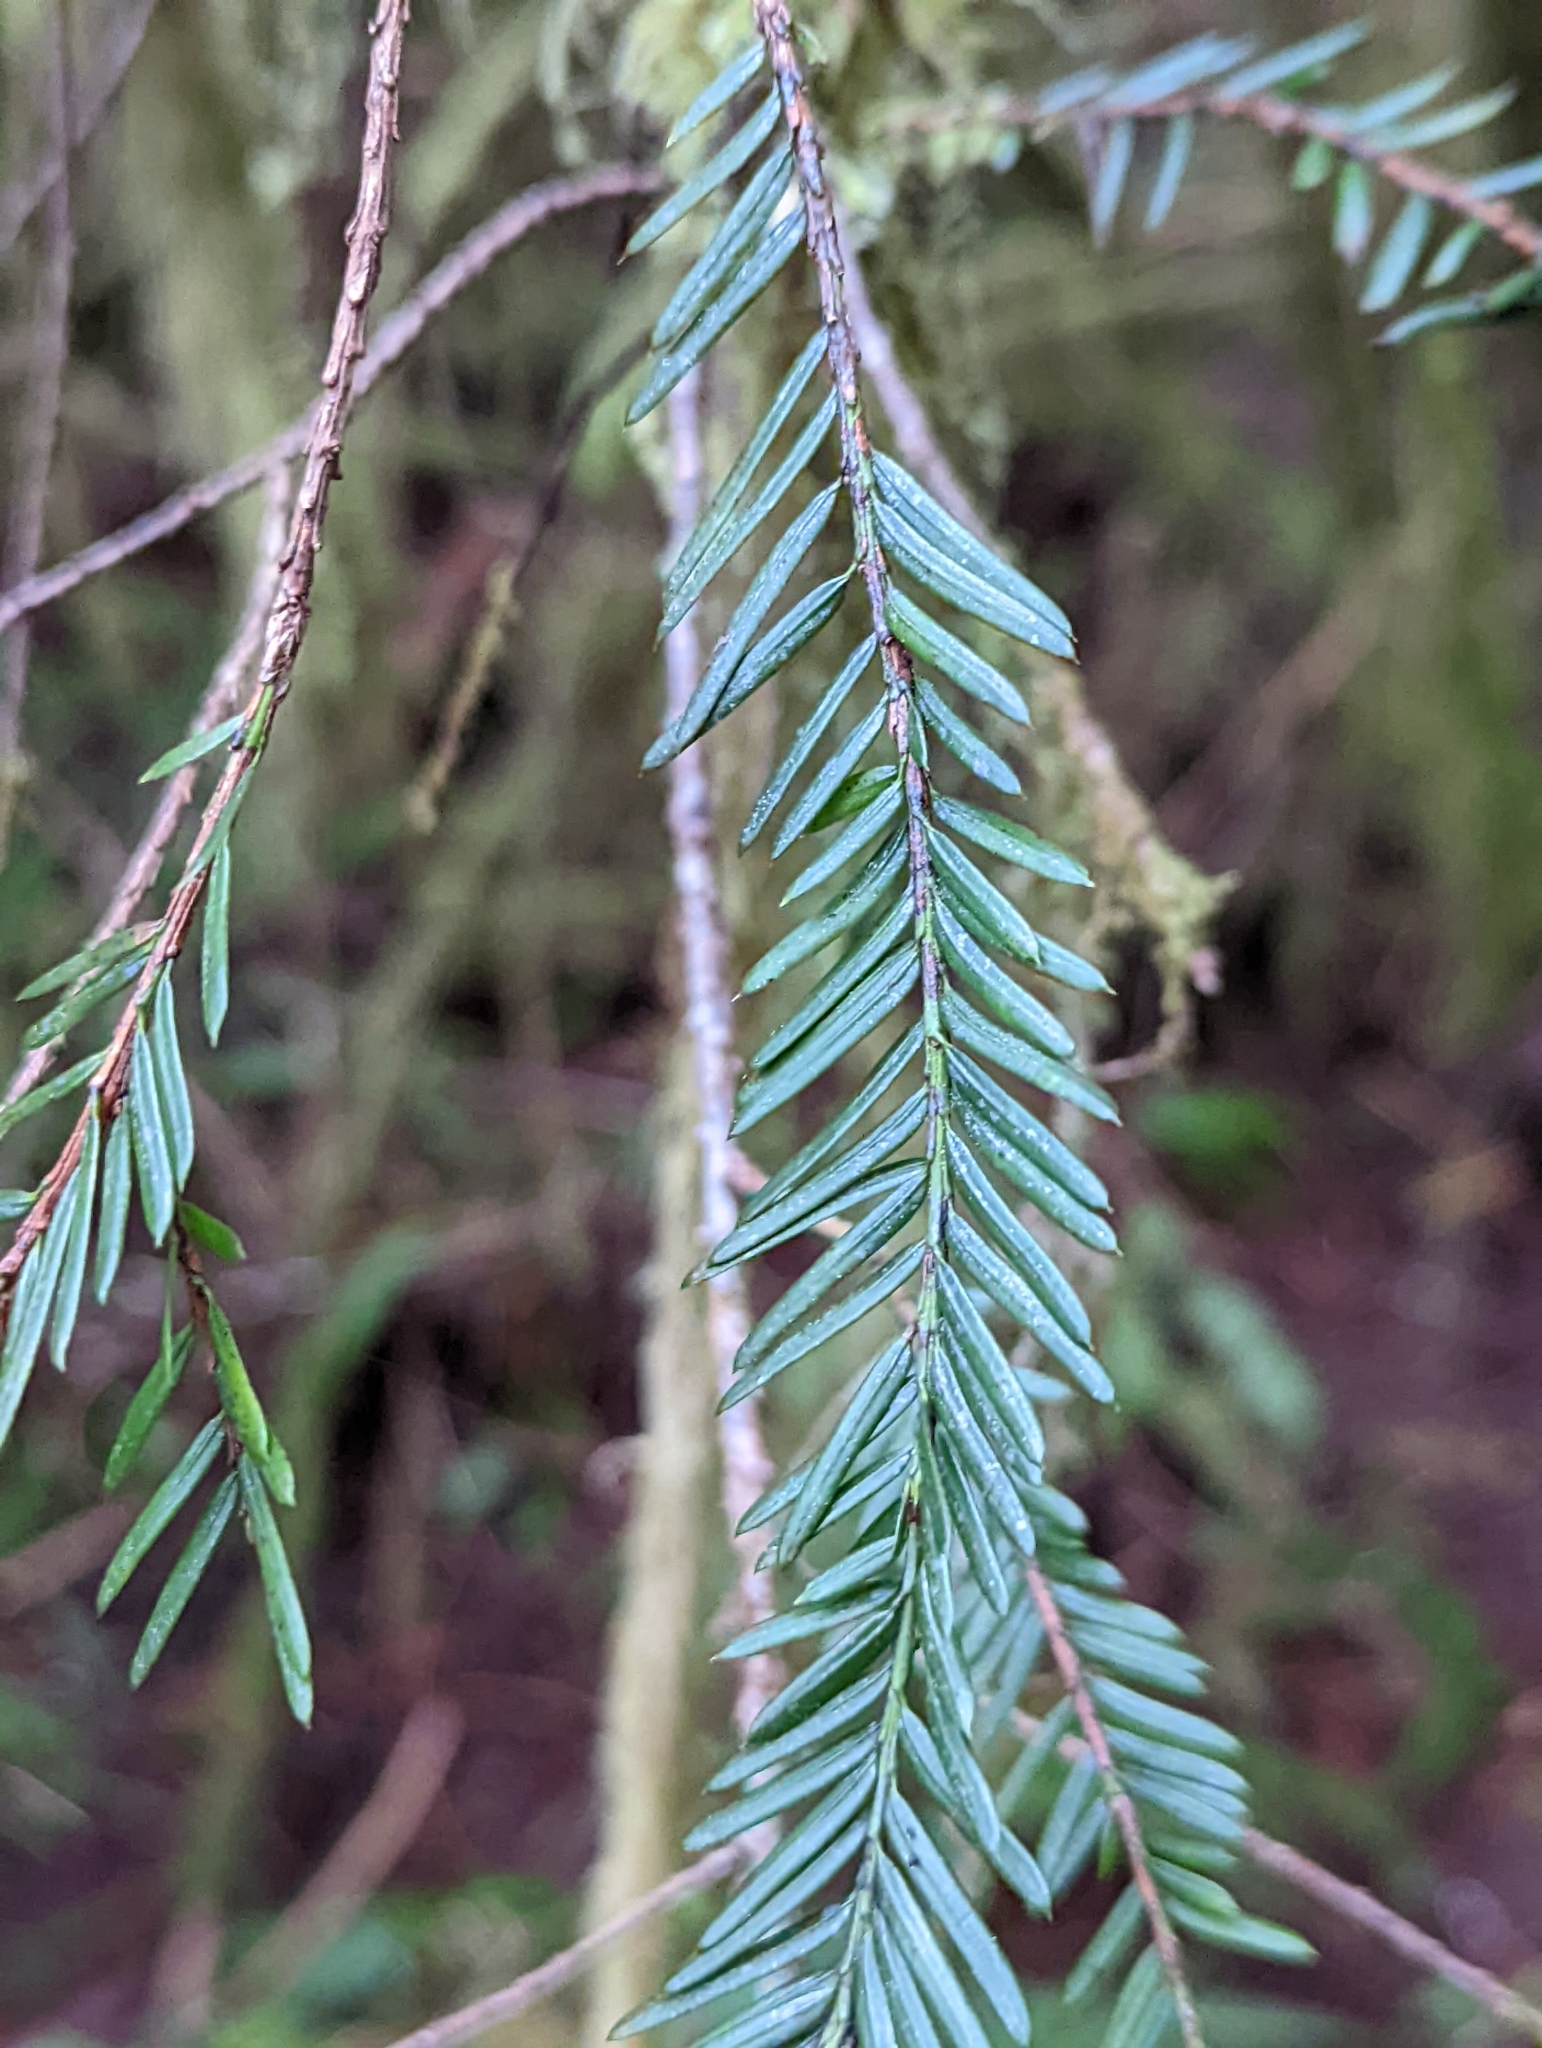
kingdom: Plantae
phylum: Tracheophyta
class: Pinopsida
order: Pinales
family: Taxaceae
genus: Taxus
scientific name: Taxus brevifolia
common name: Pacific yew
